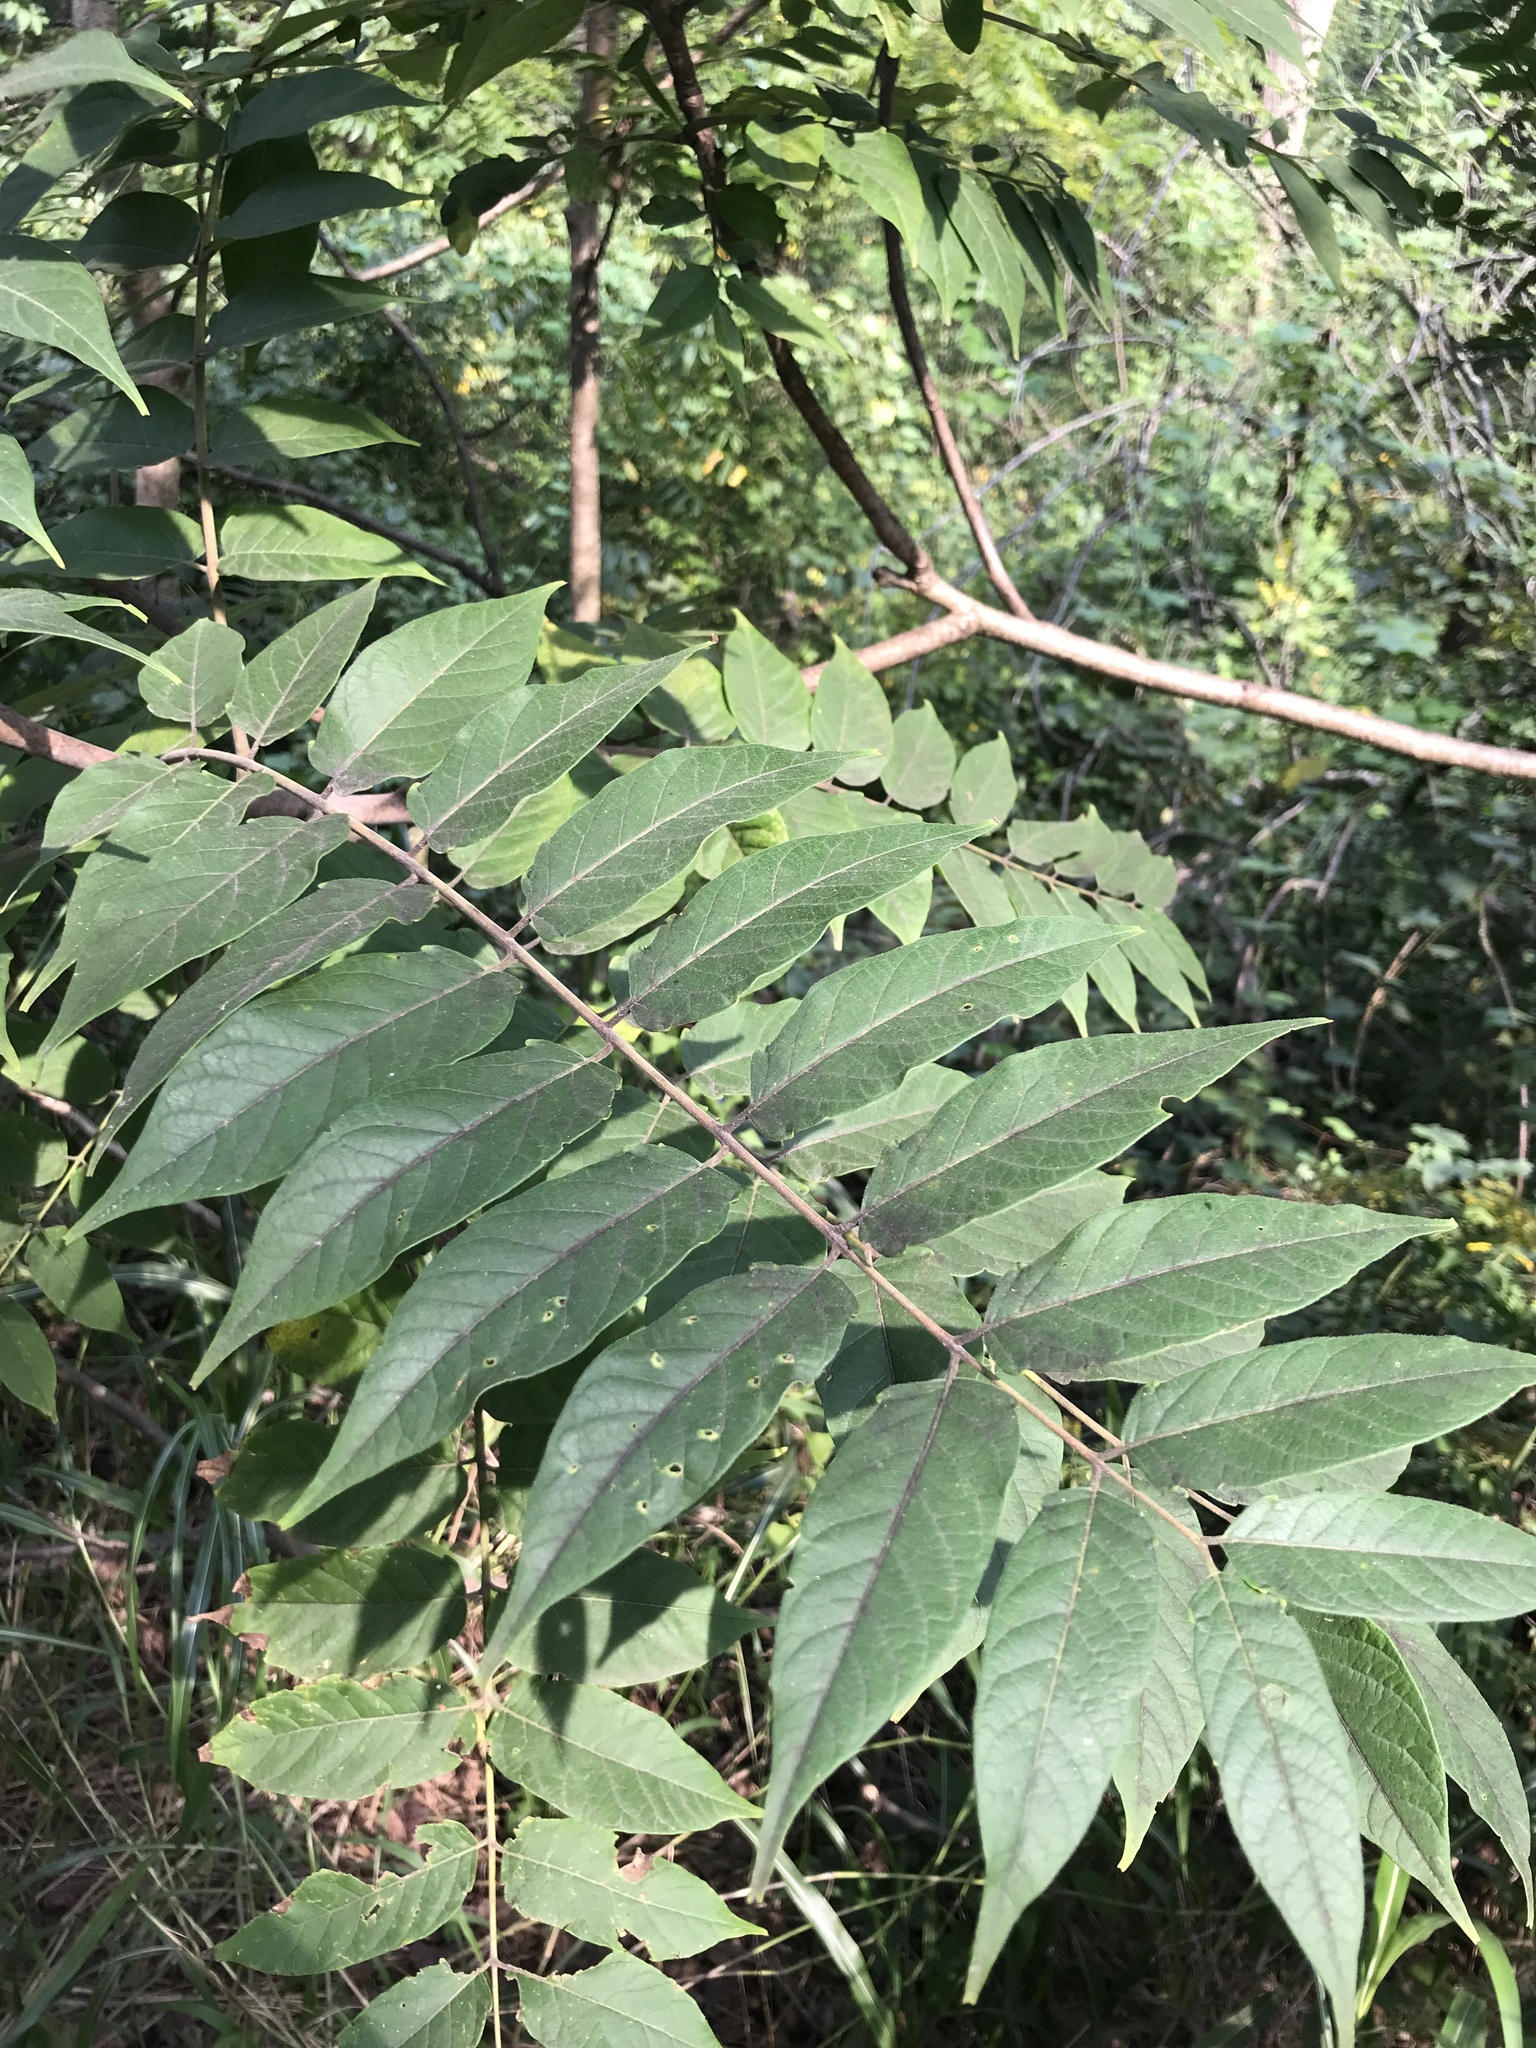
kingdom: Plantae
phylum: Tracheophyta
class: Magnoliopsida
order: Sapindales
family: Simaroubaceae
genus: Ailanthus
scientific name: Ailanthus altissima
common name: Tree-of-heaven
